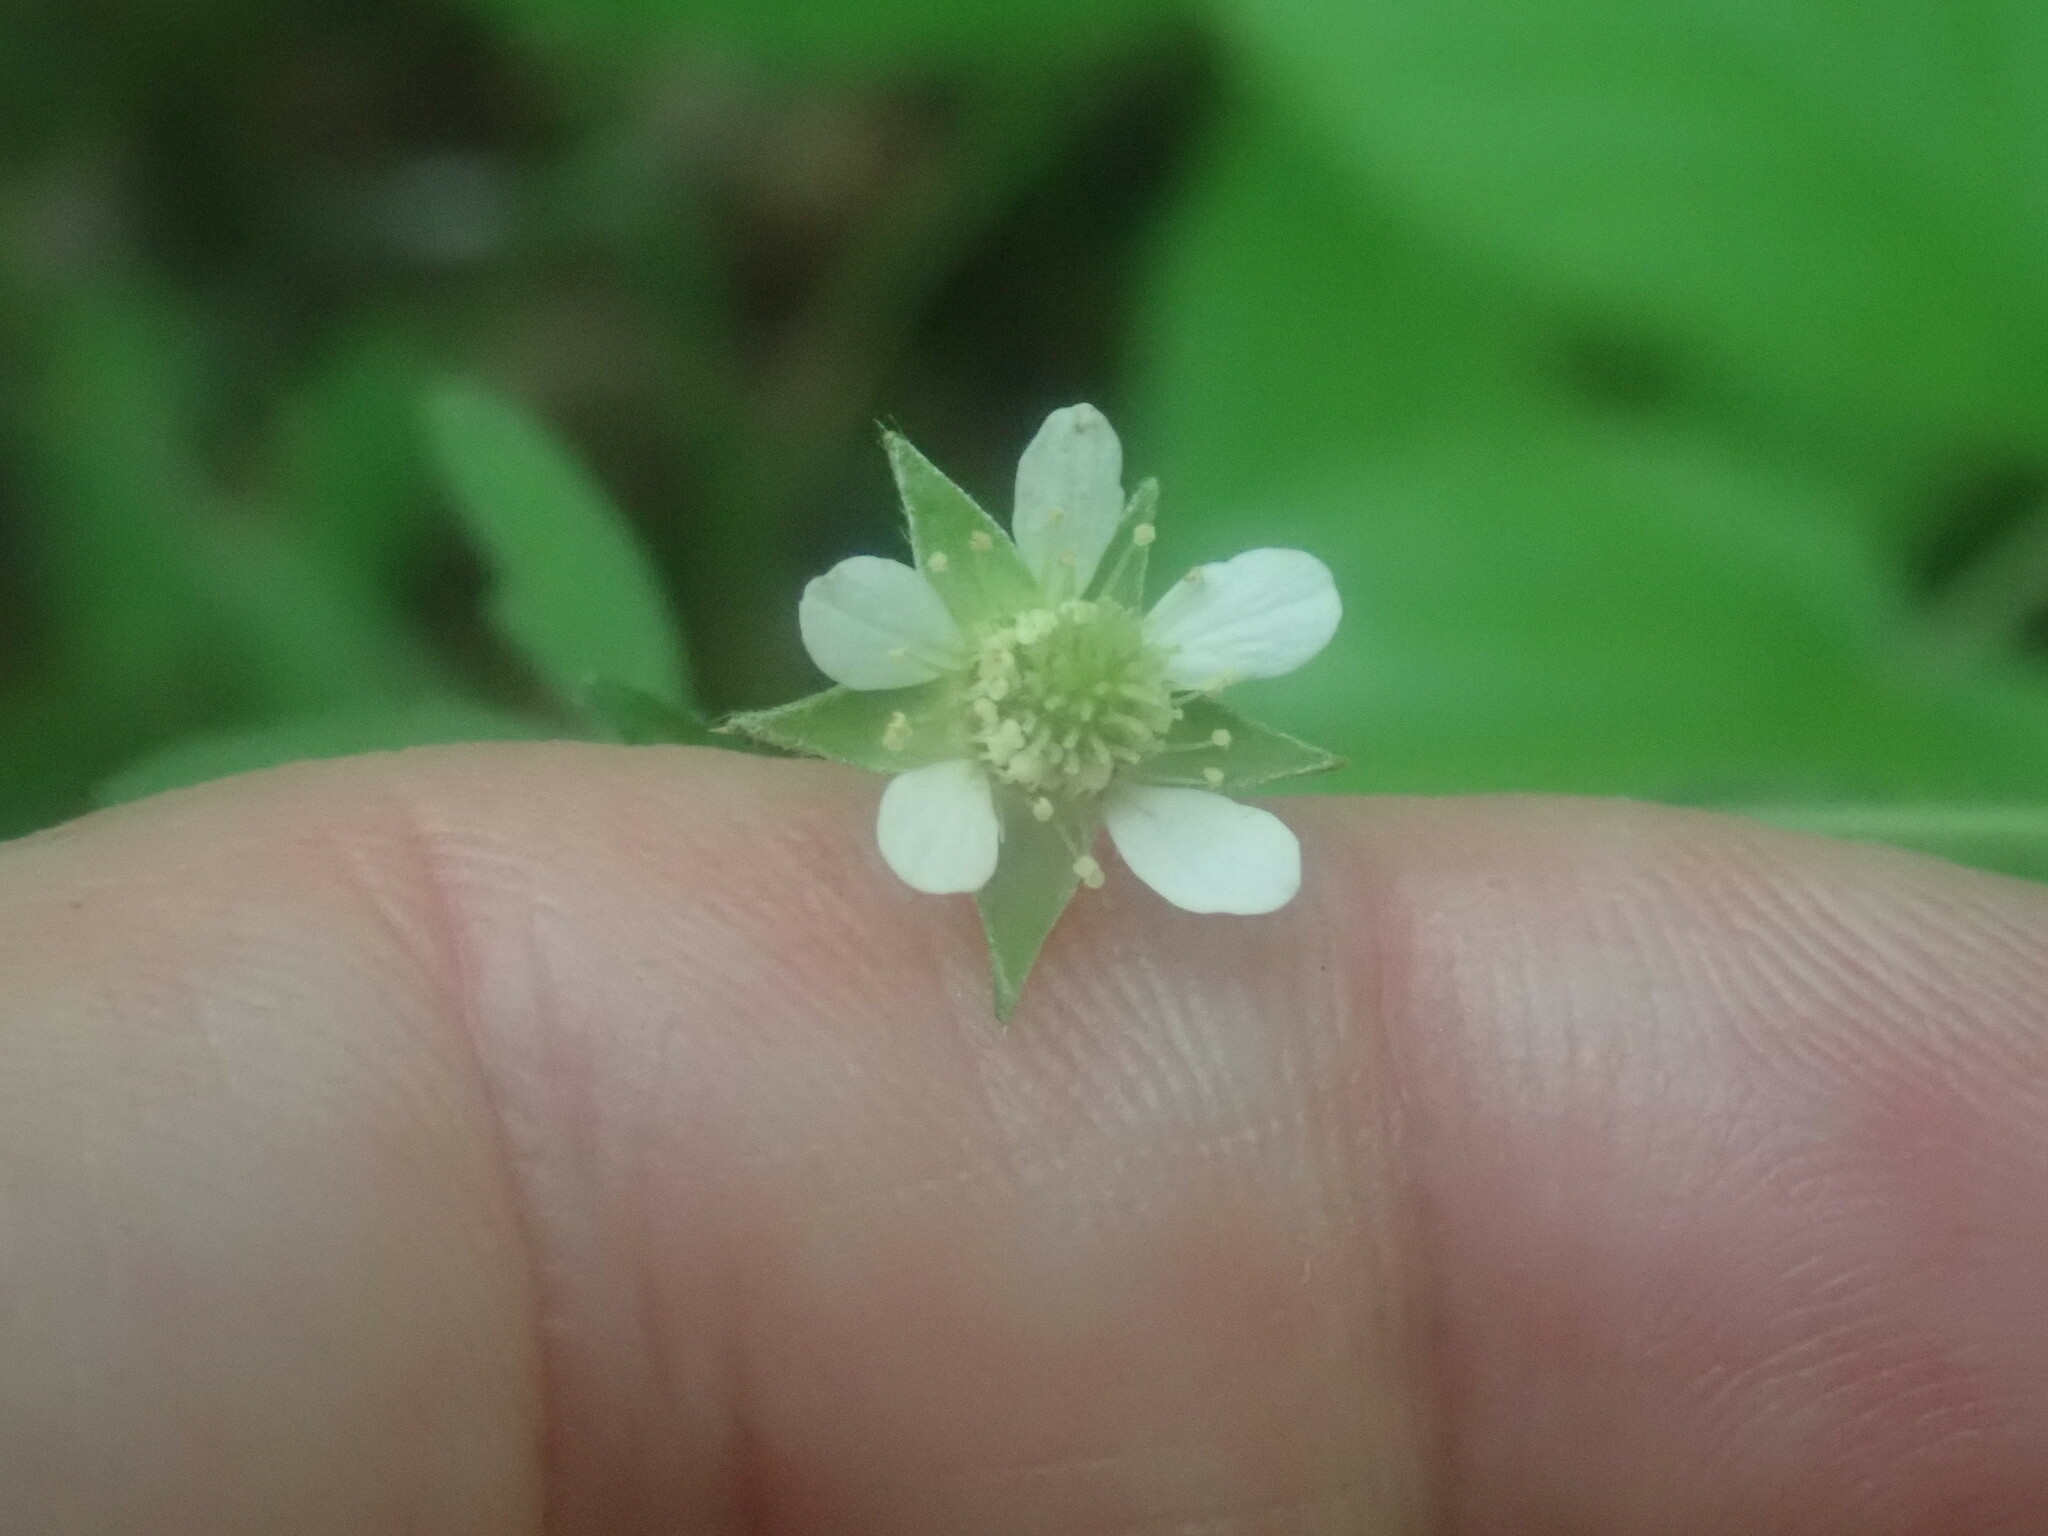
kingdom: Plantae
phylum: Tracheophyta
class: Magnoliopsida
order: Rosales
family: Rosaceae
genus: Geum
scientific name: Geum canadense
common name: White avens
